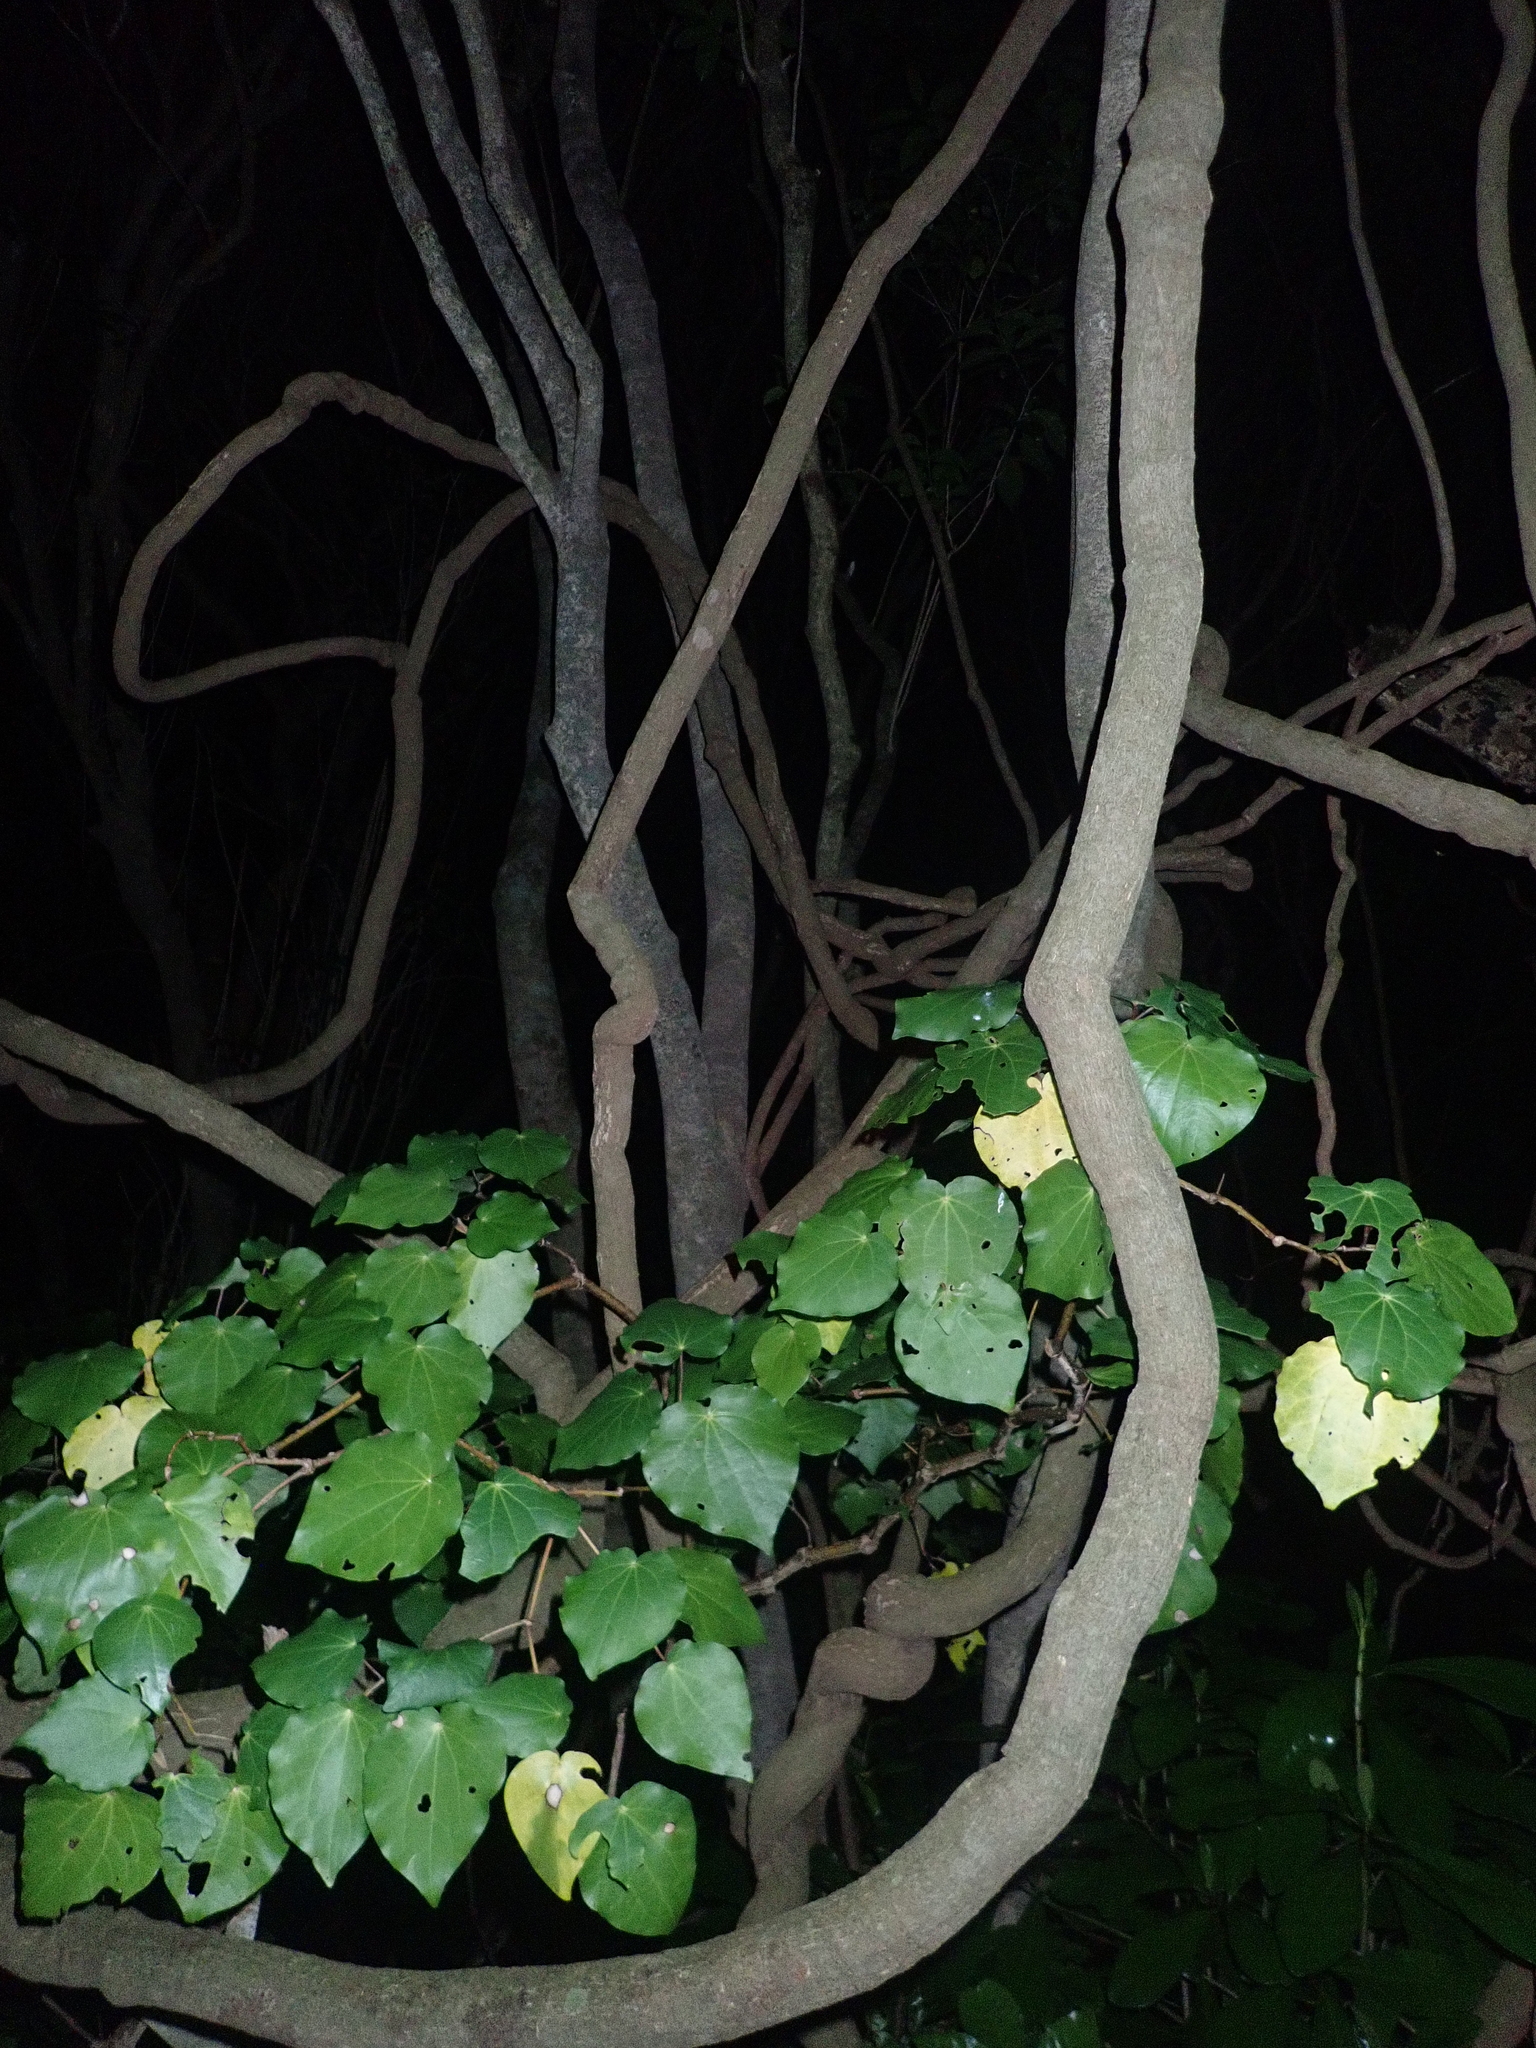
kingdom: Plantae
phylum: Tracheophyta
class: Magnoliopsida
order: Piperales
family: Piperaceae
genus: Macropiper
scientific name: Macropiper excelsum
